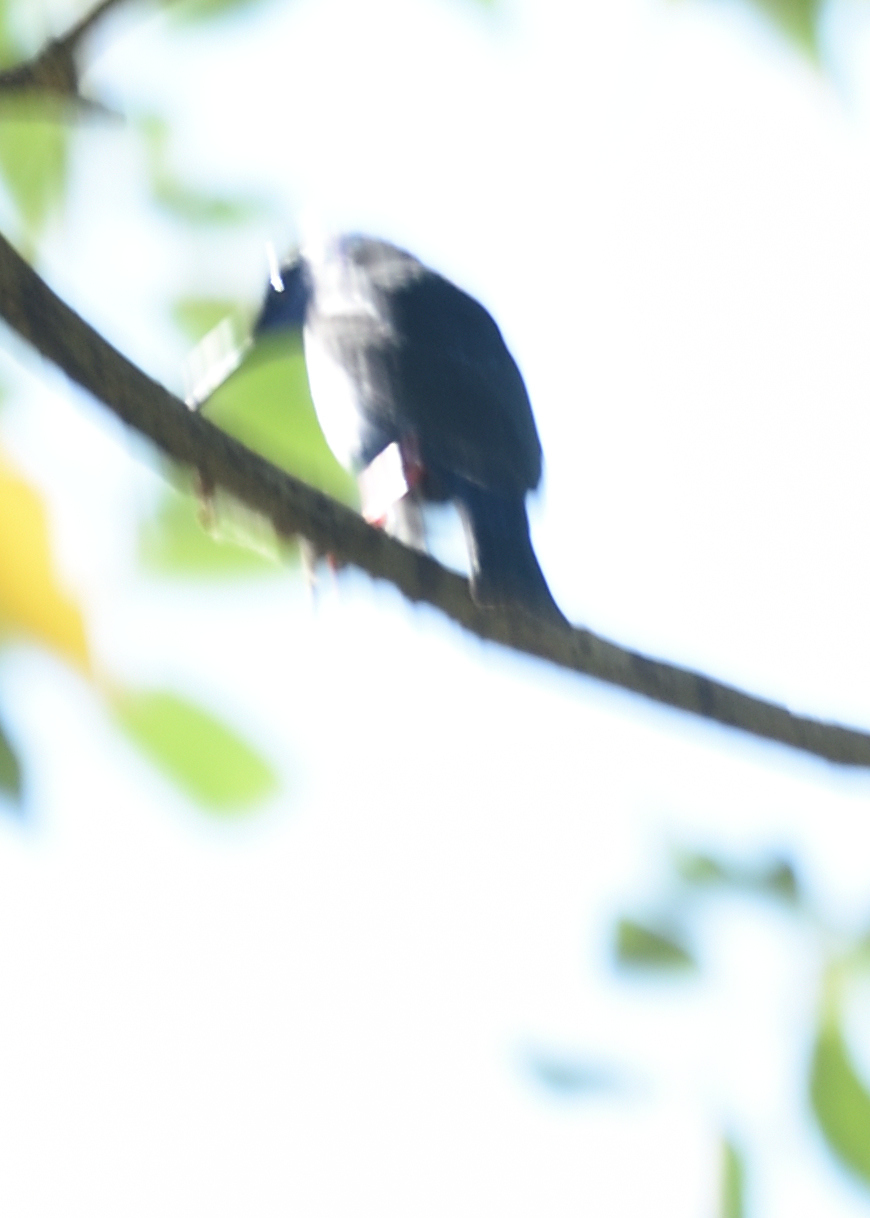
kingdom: Animalia
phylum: Chordata
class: Aves
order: Passeriformes
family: Thraupidae
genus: Cyanerpes
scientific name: Cyanerpes cyaneus
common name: Red-legged honeycreeper
